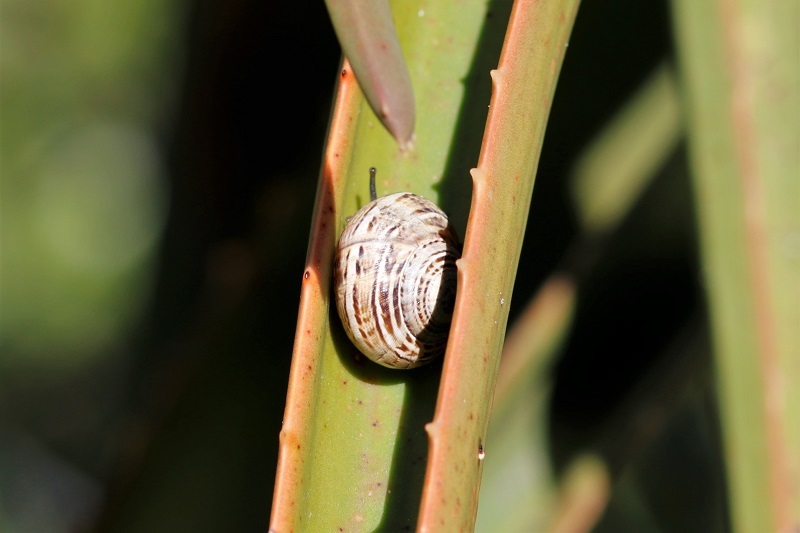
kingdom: Animalia
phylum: Mollusca
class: Gastropoda
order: Stylommatophora
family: Helicidae
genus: Theba
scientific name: Theba pisana
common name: White snail
